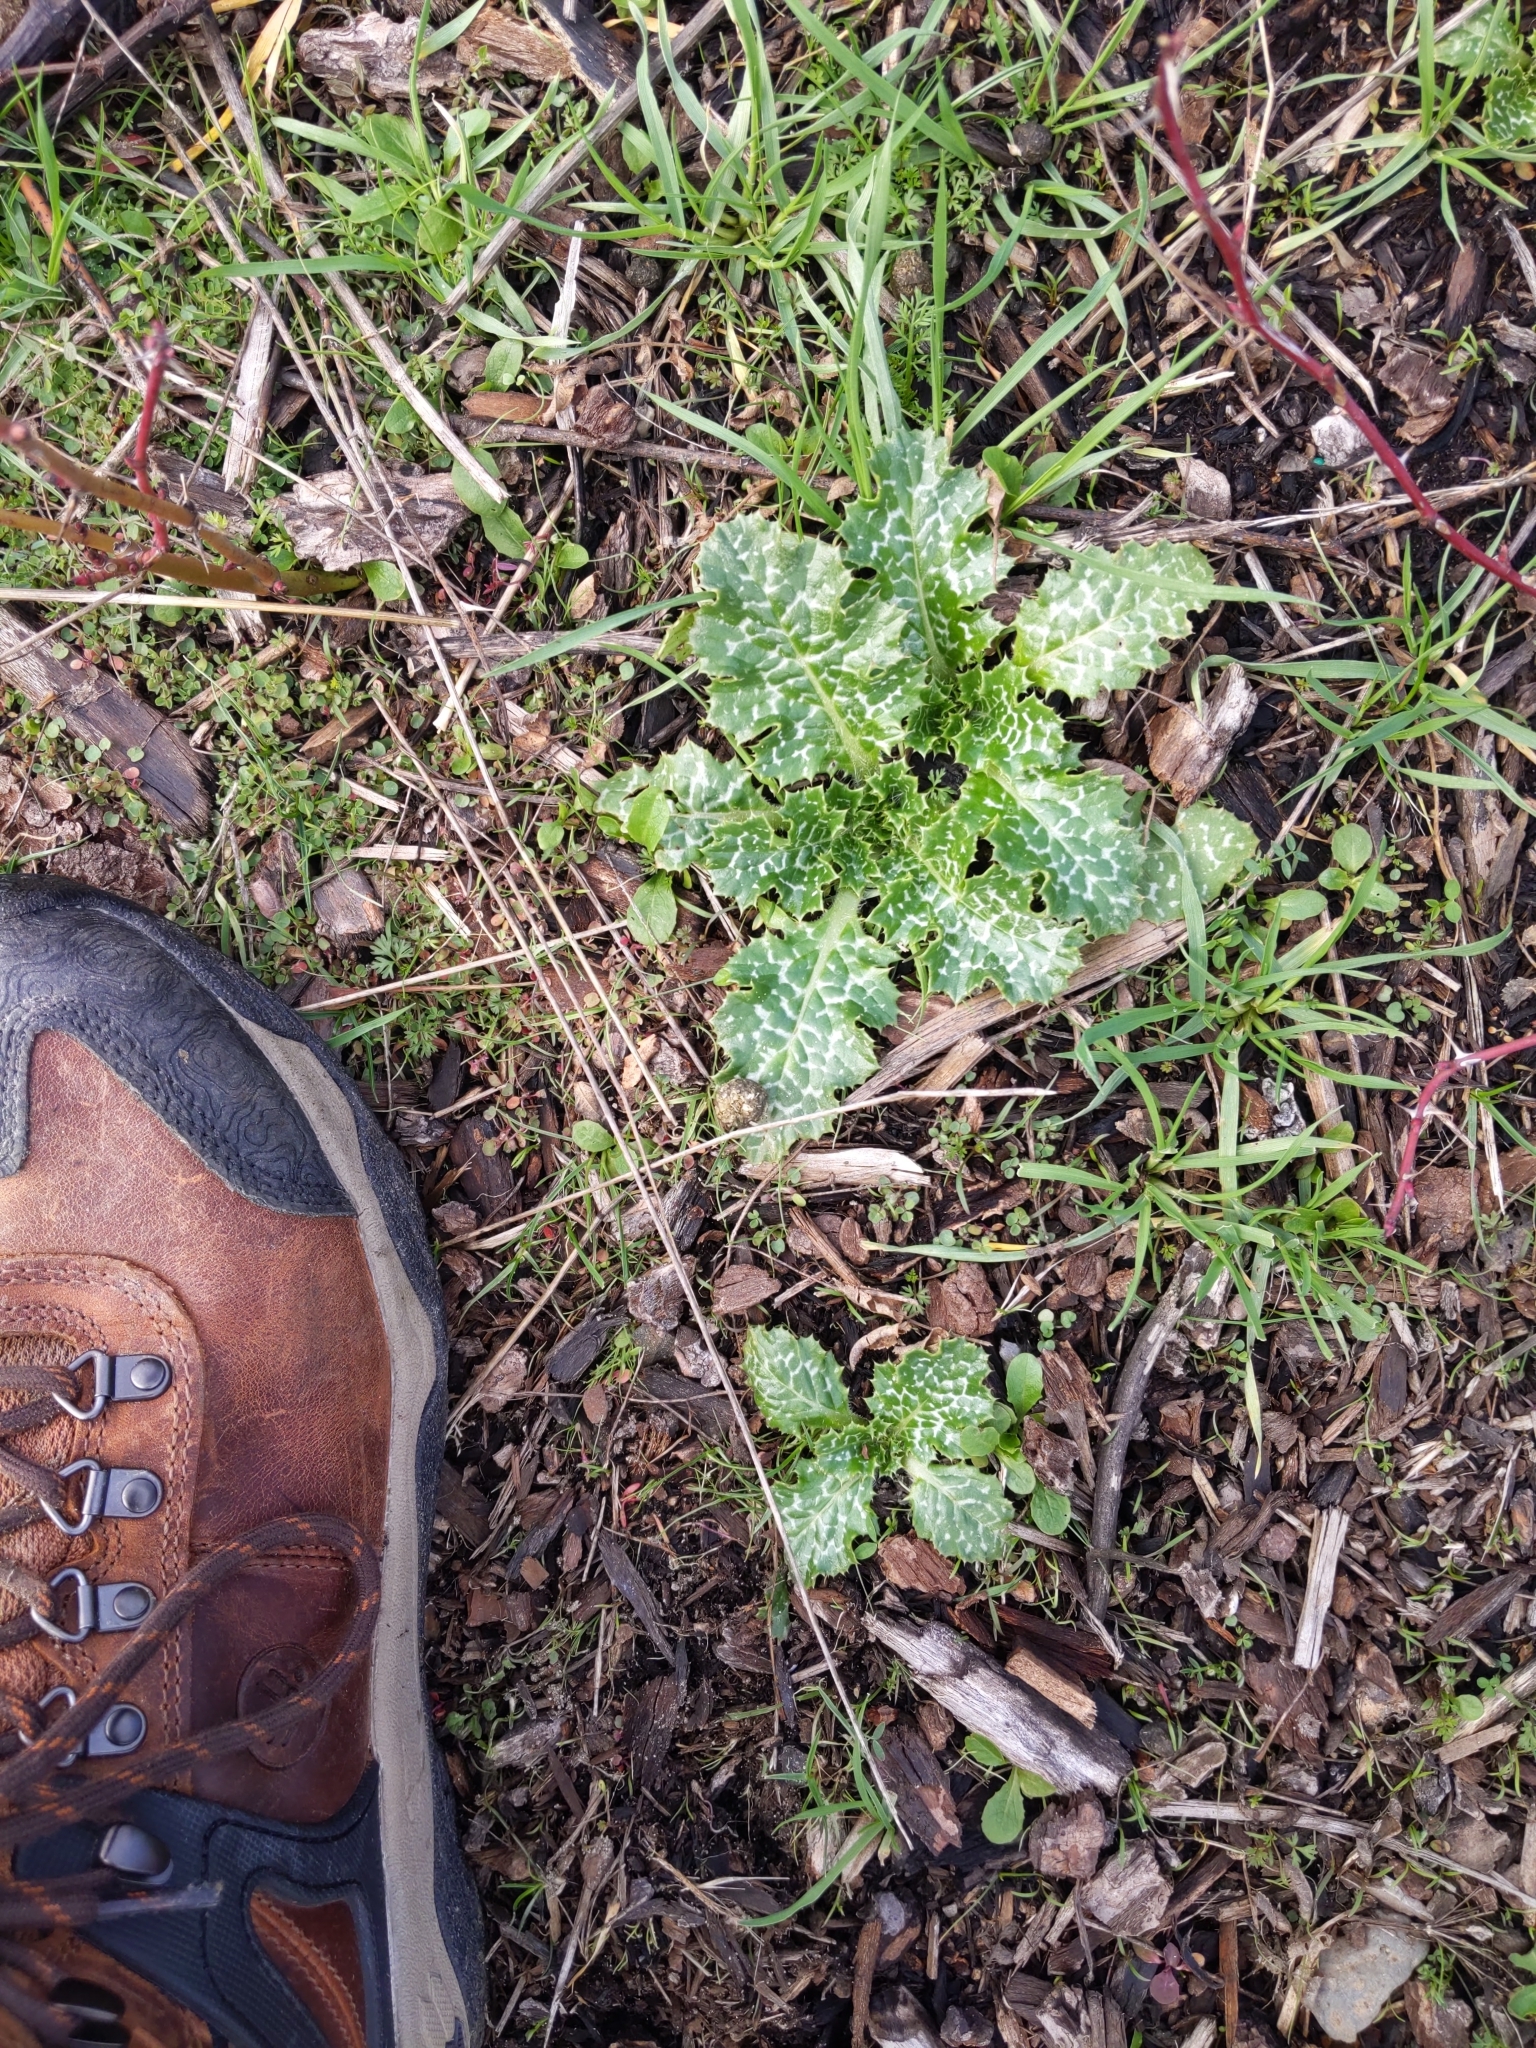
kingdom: Plantae
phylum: Tracheophyta
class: Magnoliopsida
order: Asterales
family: Asteraceae
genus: Silybum
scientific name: Silybum marianum
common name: Milk thistle
